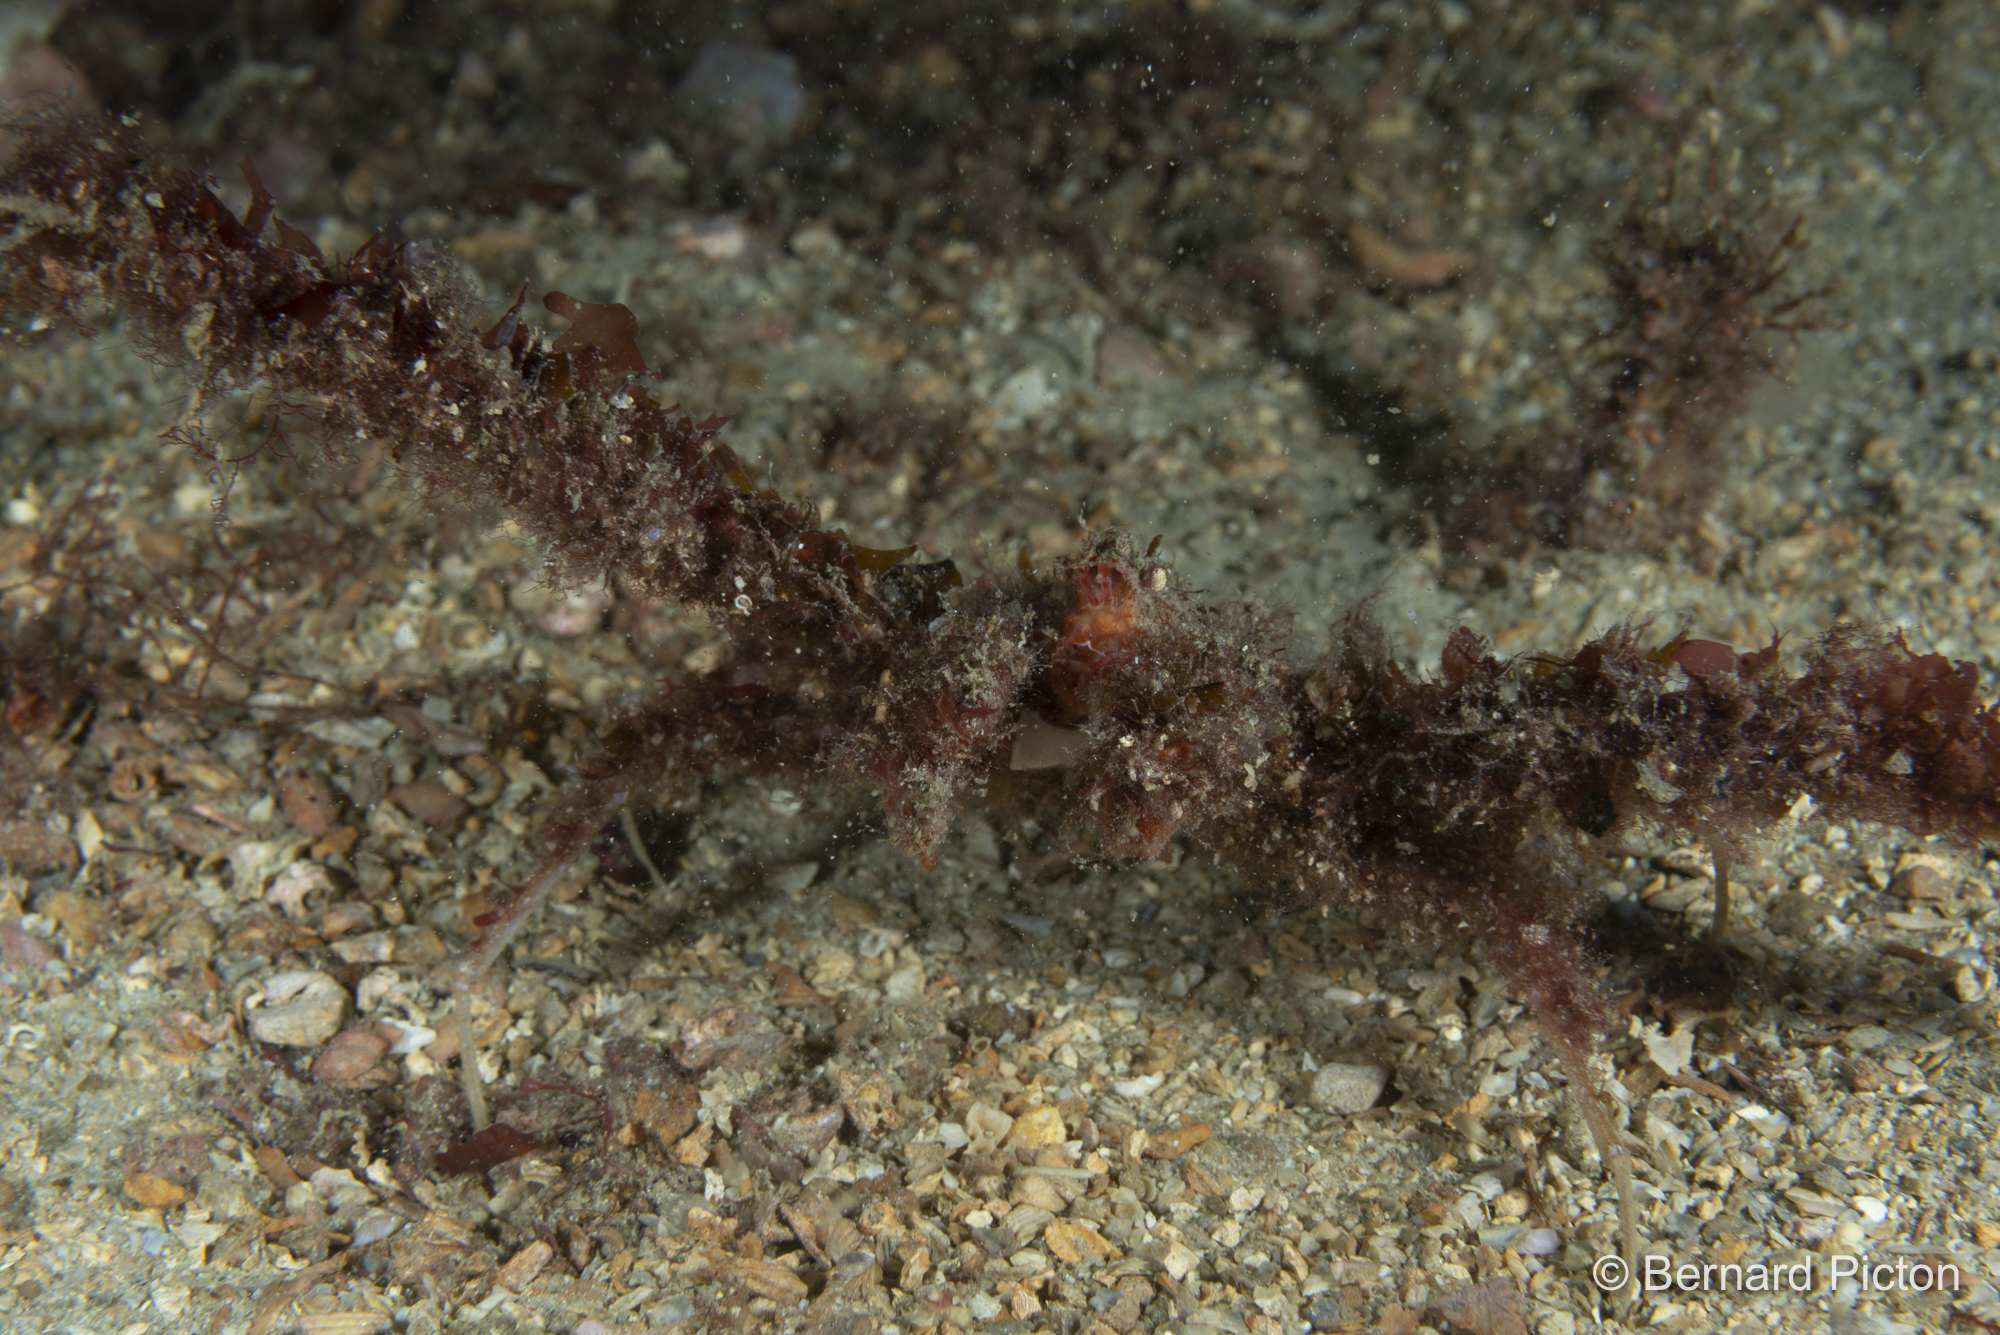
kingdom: Animalia
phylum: Arthropoda
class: Malacostraca
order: Decapoda
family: Inachidae
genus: Inachus
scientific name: Inachus dorsettensis
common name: Scorpion spider crab
